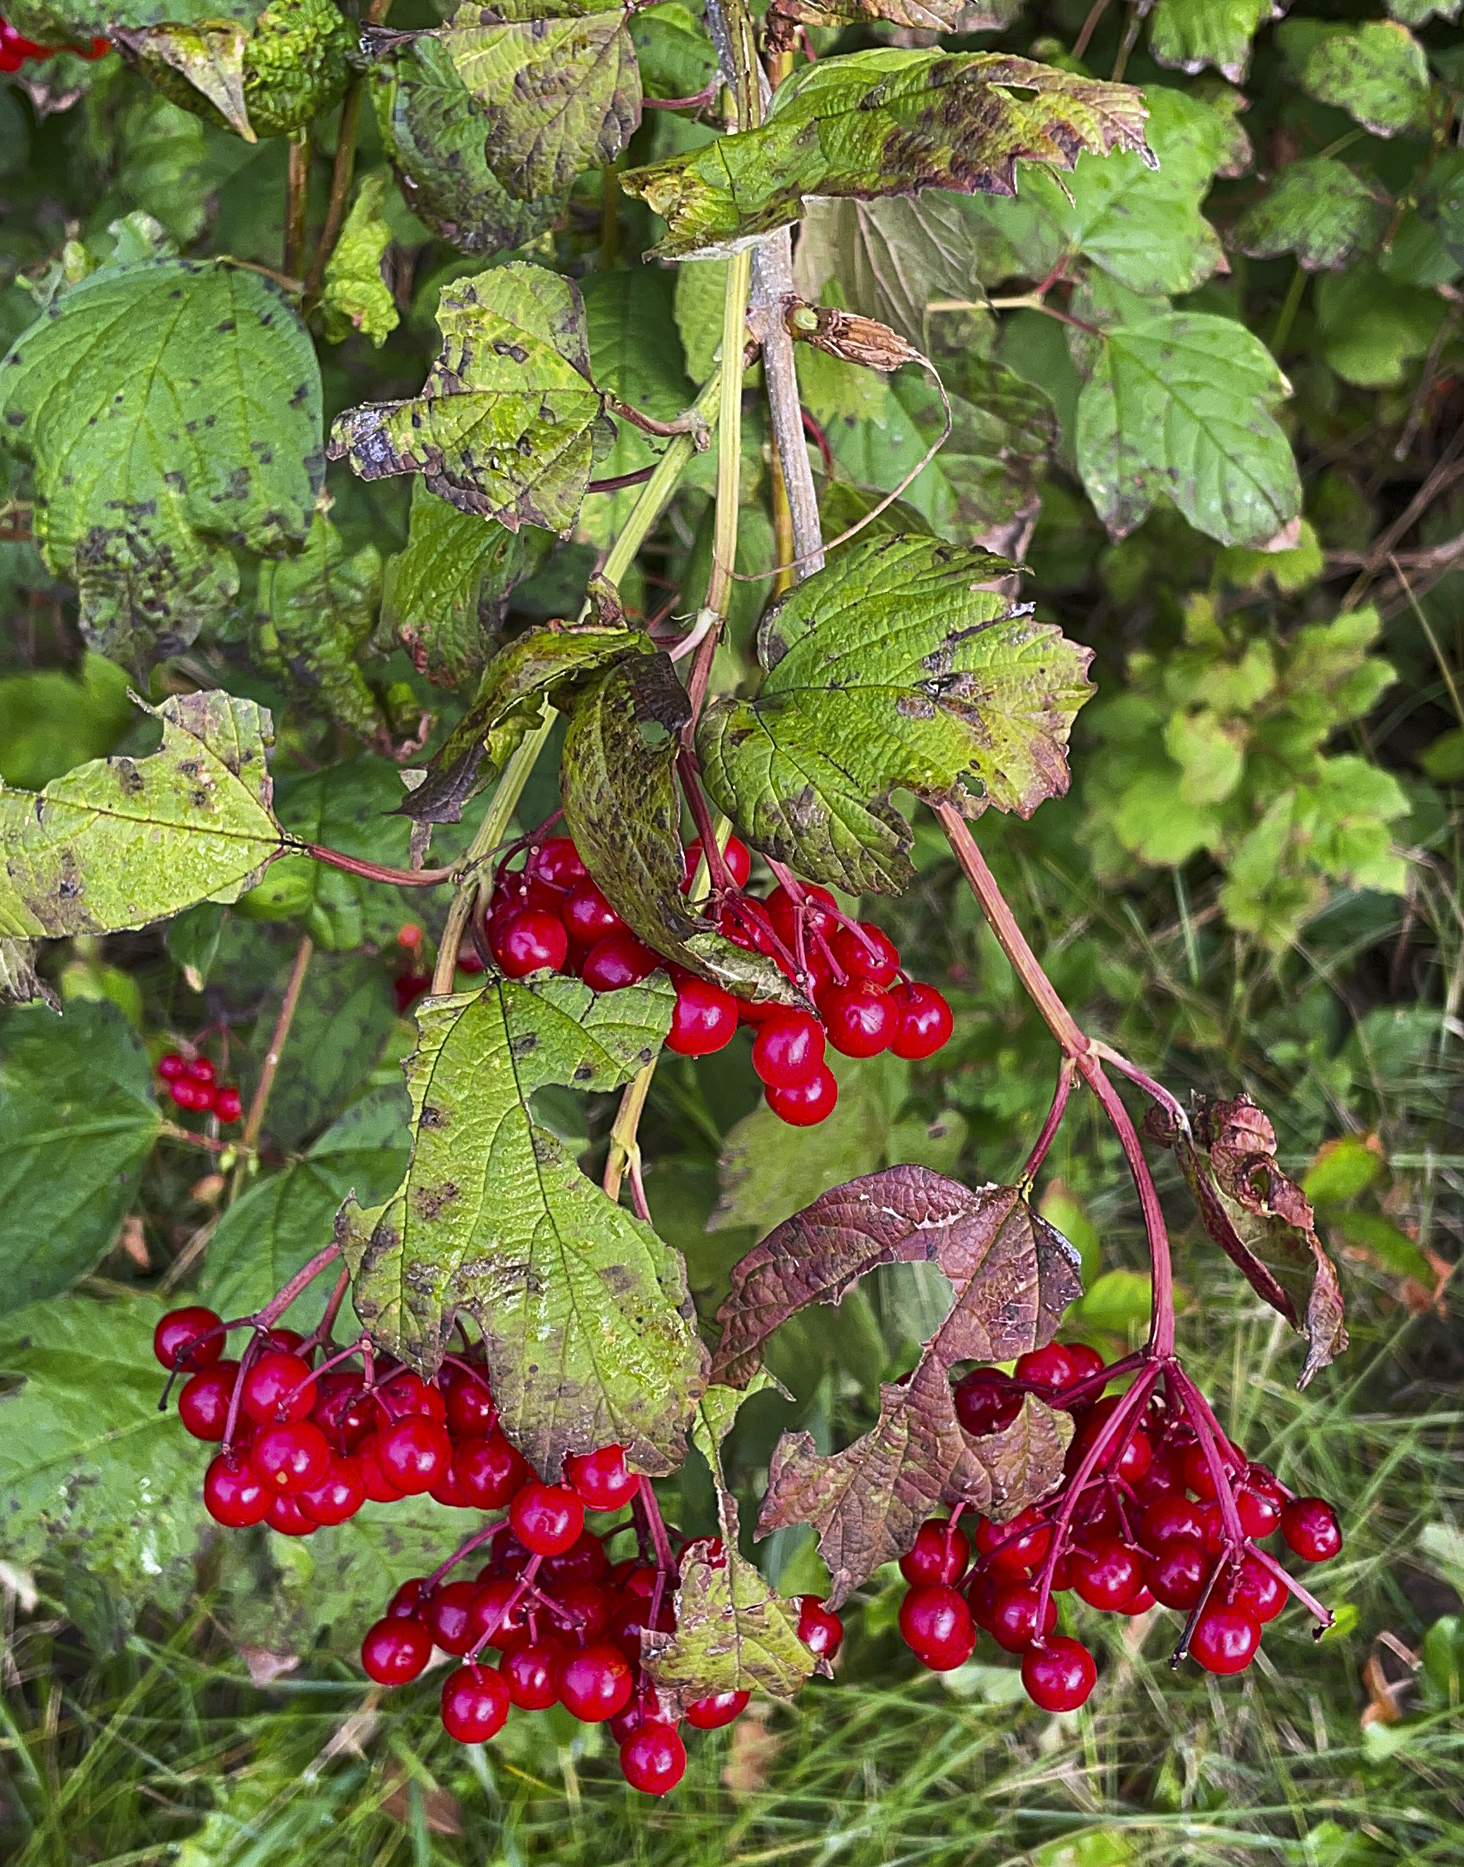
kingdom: Plantae
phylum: Tracheophyta
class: Magnoliopsida
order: Dipsacales
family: Viburnaceae
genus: Viburnum
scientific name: Viburnum opulus
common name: Guelder-rose
